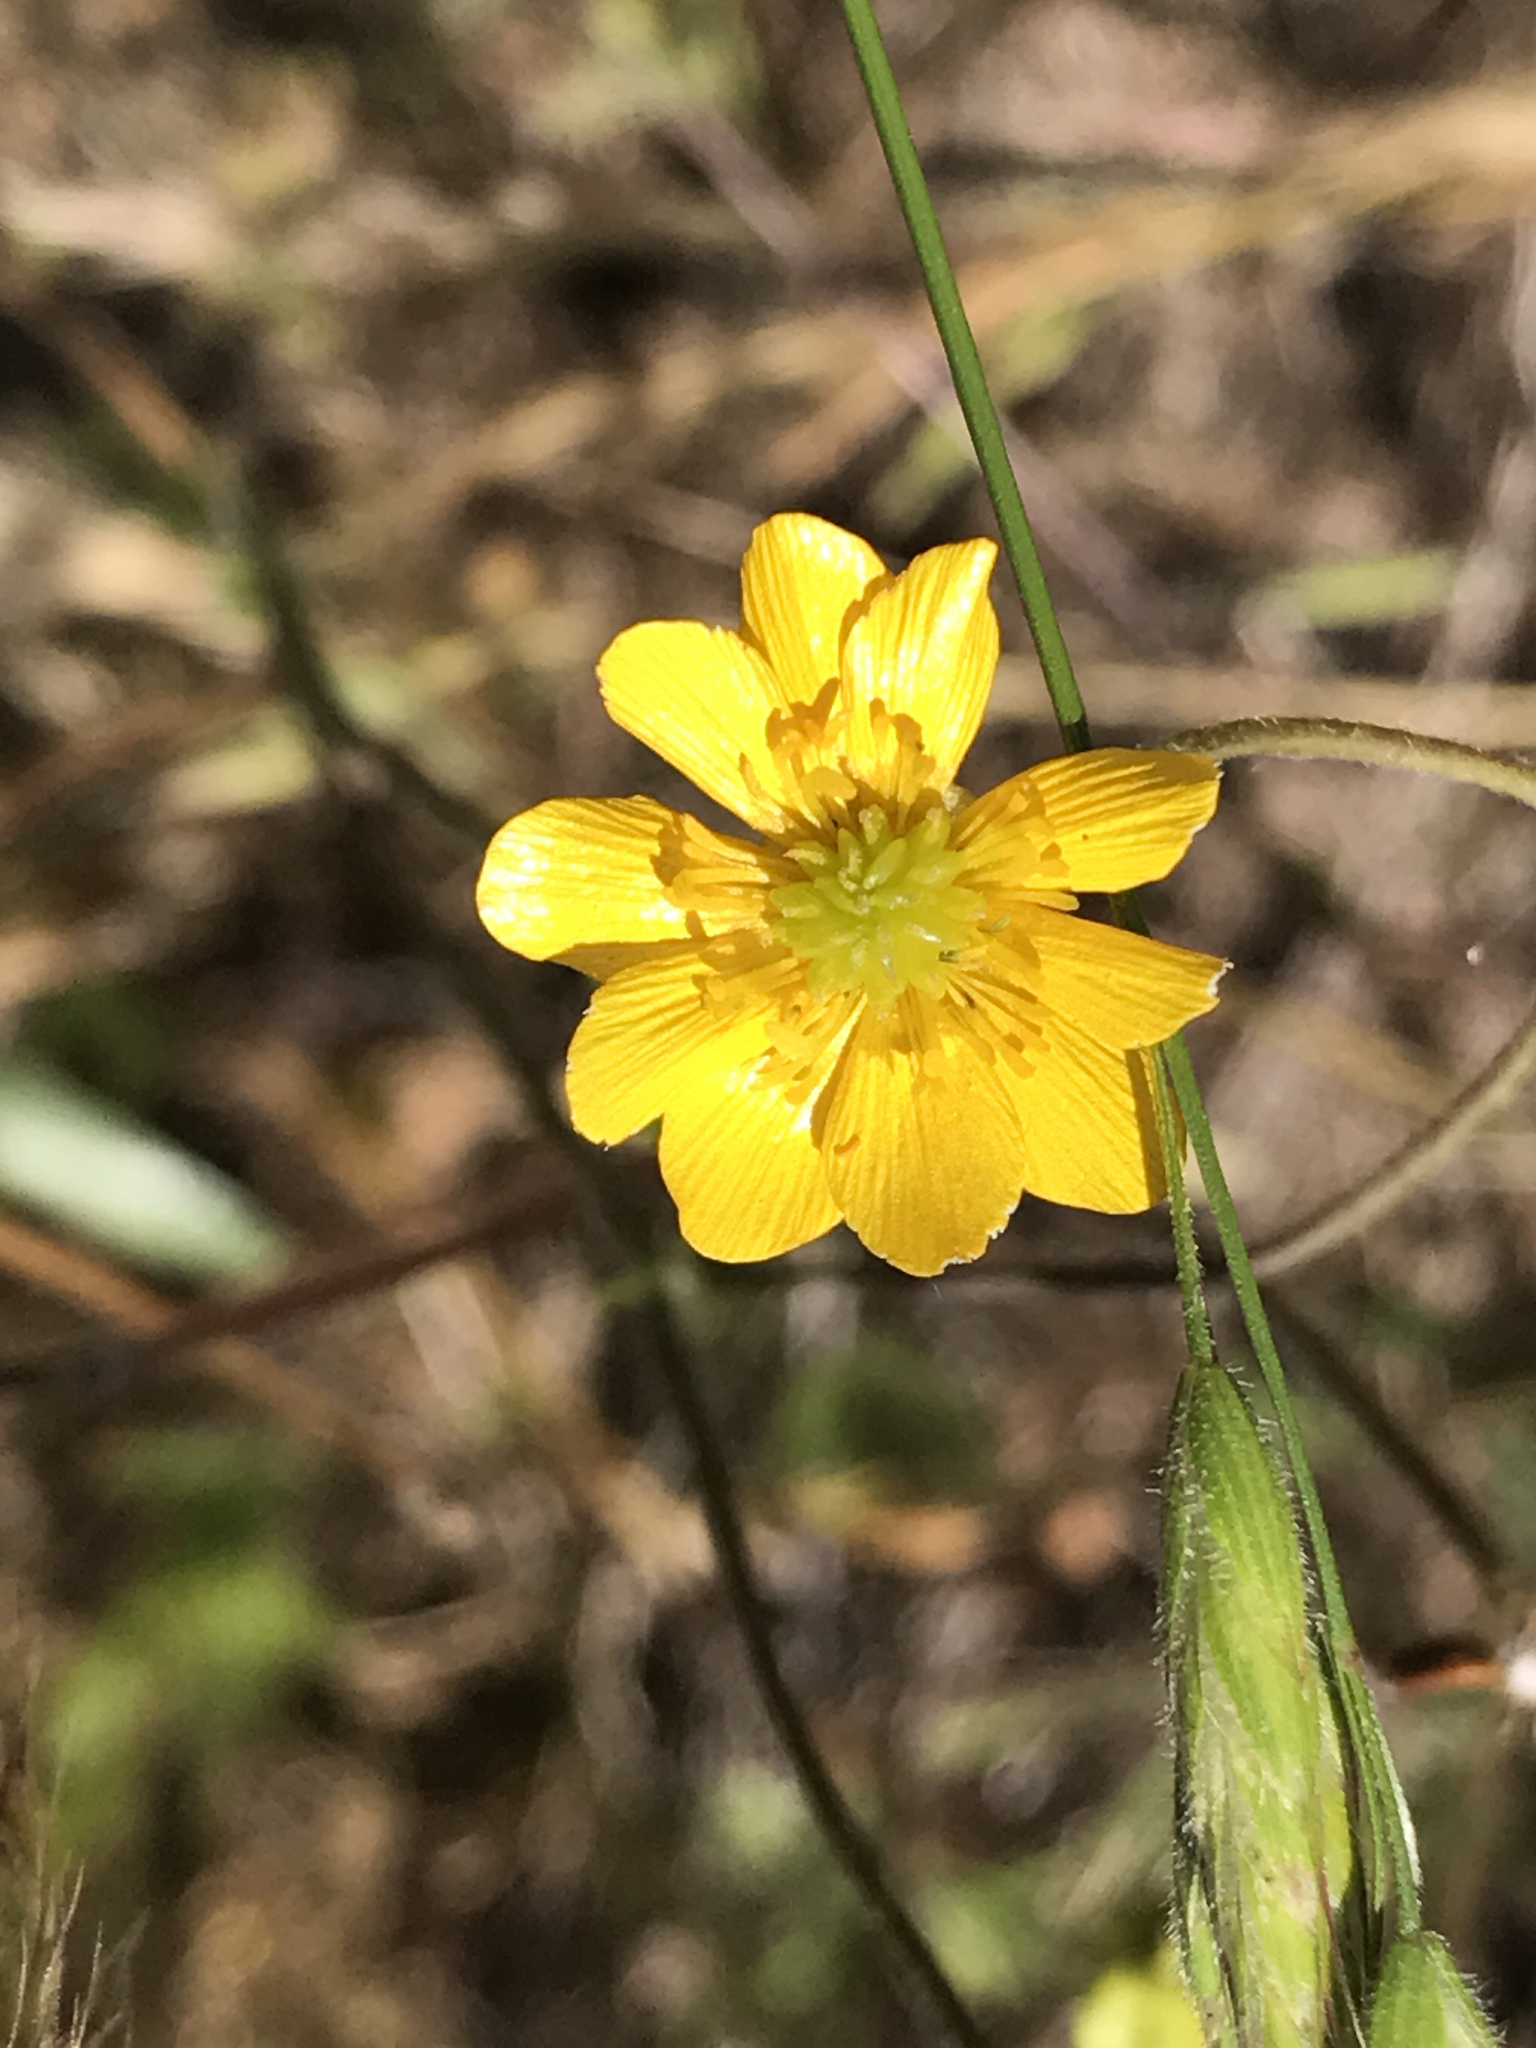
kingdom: Plantae
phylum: Tracheophyta
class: Magnoliopsida
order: Ranunculales
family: Ranunculaceae
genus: Ranunculus
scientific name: Ranunculus californicus
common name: California buttercup
